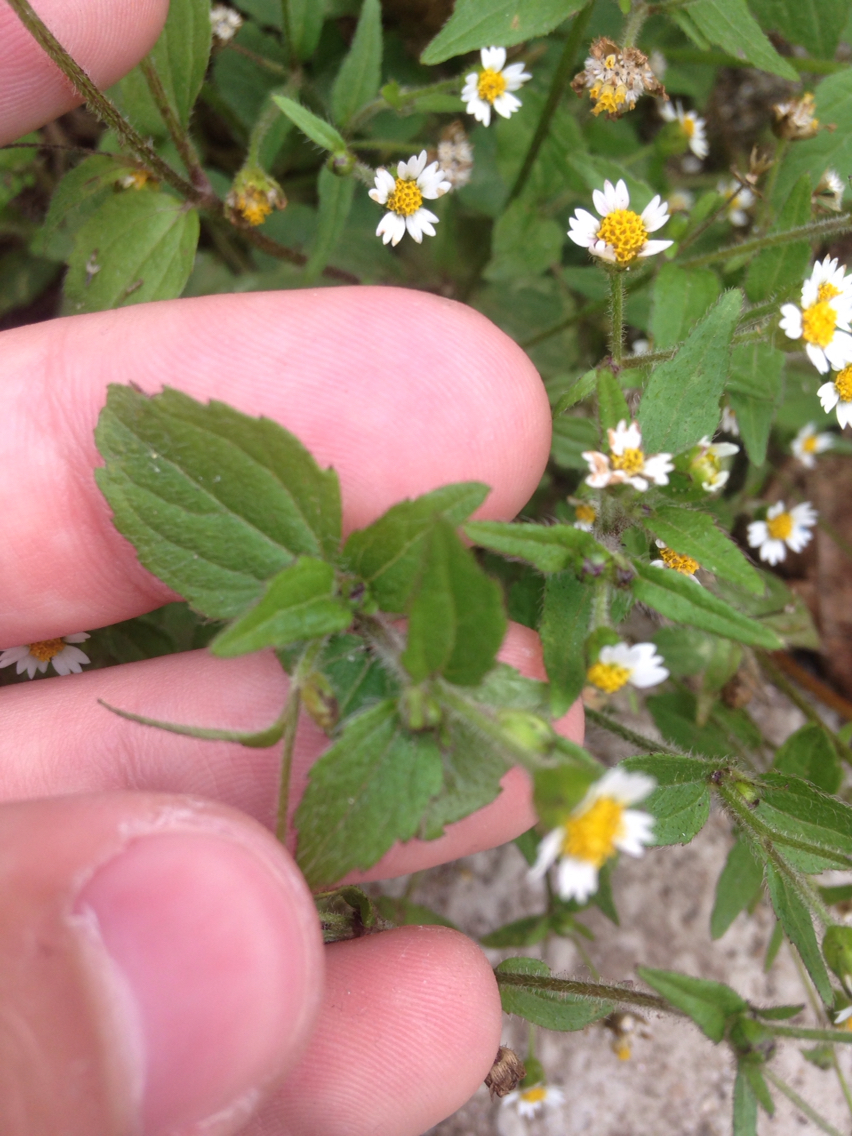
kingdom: Plantae
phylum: Tracheophyta
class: Magnoliopsida
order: Asterales
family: Asteraceae
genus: Galinsoga
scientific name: Galinsoga quadriradiata
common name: Shaggy soldier
